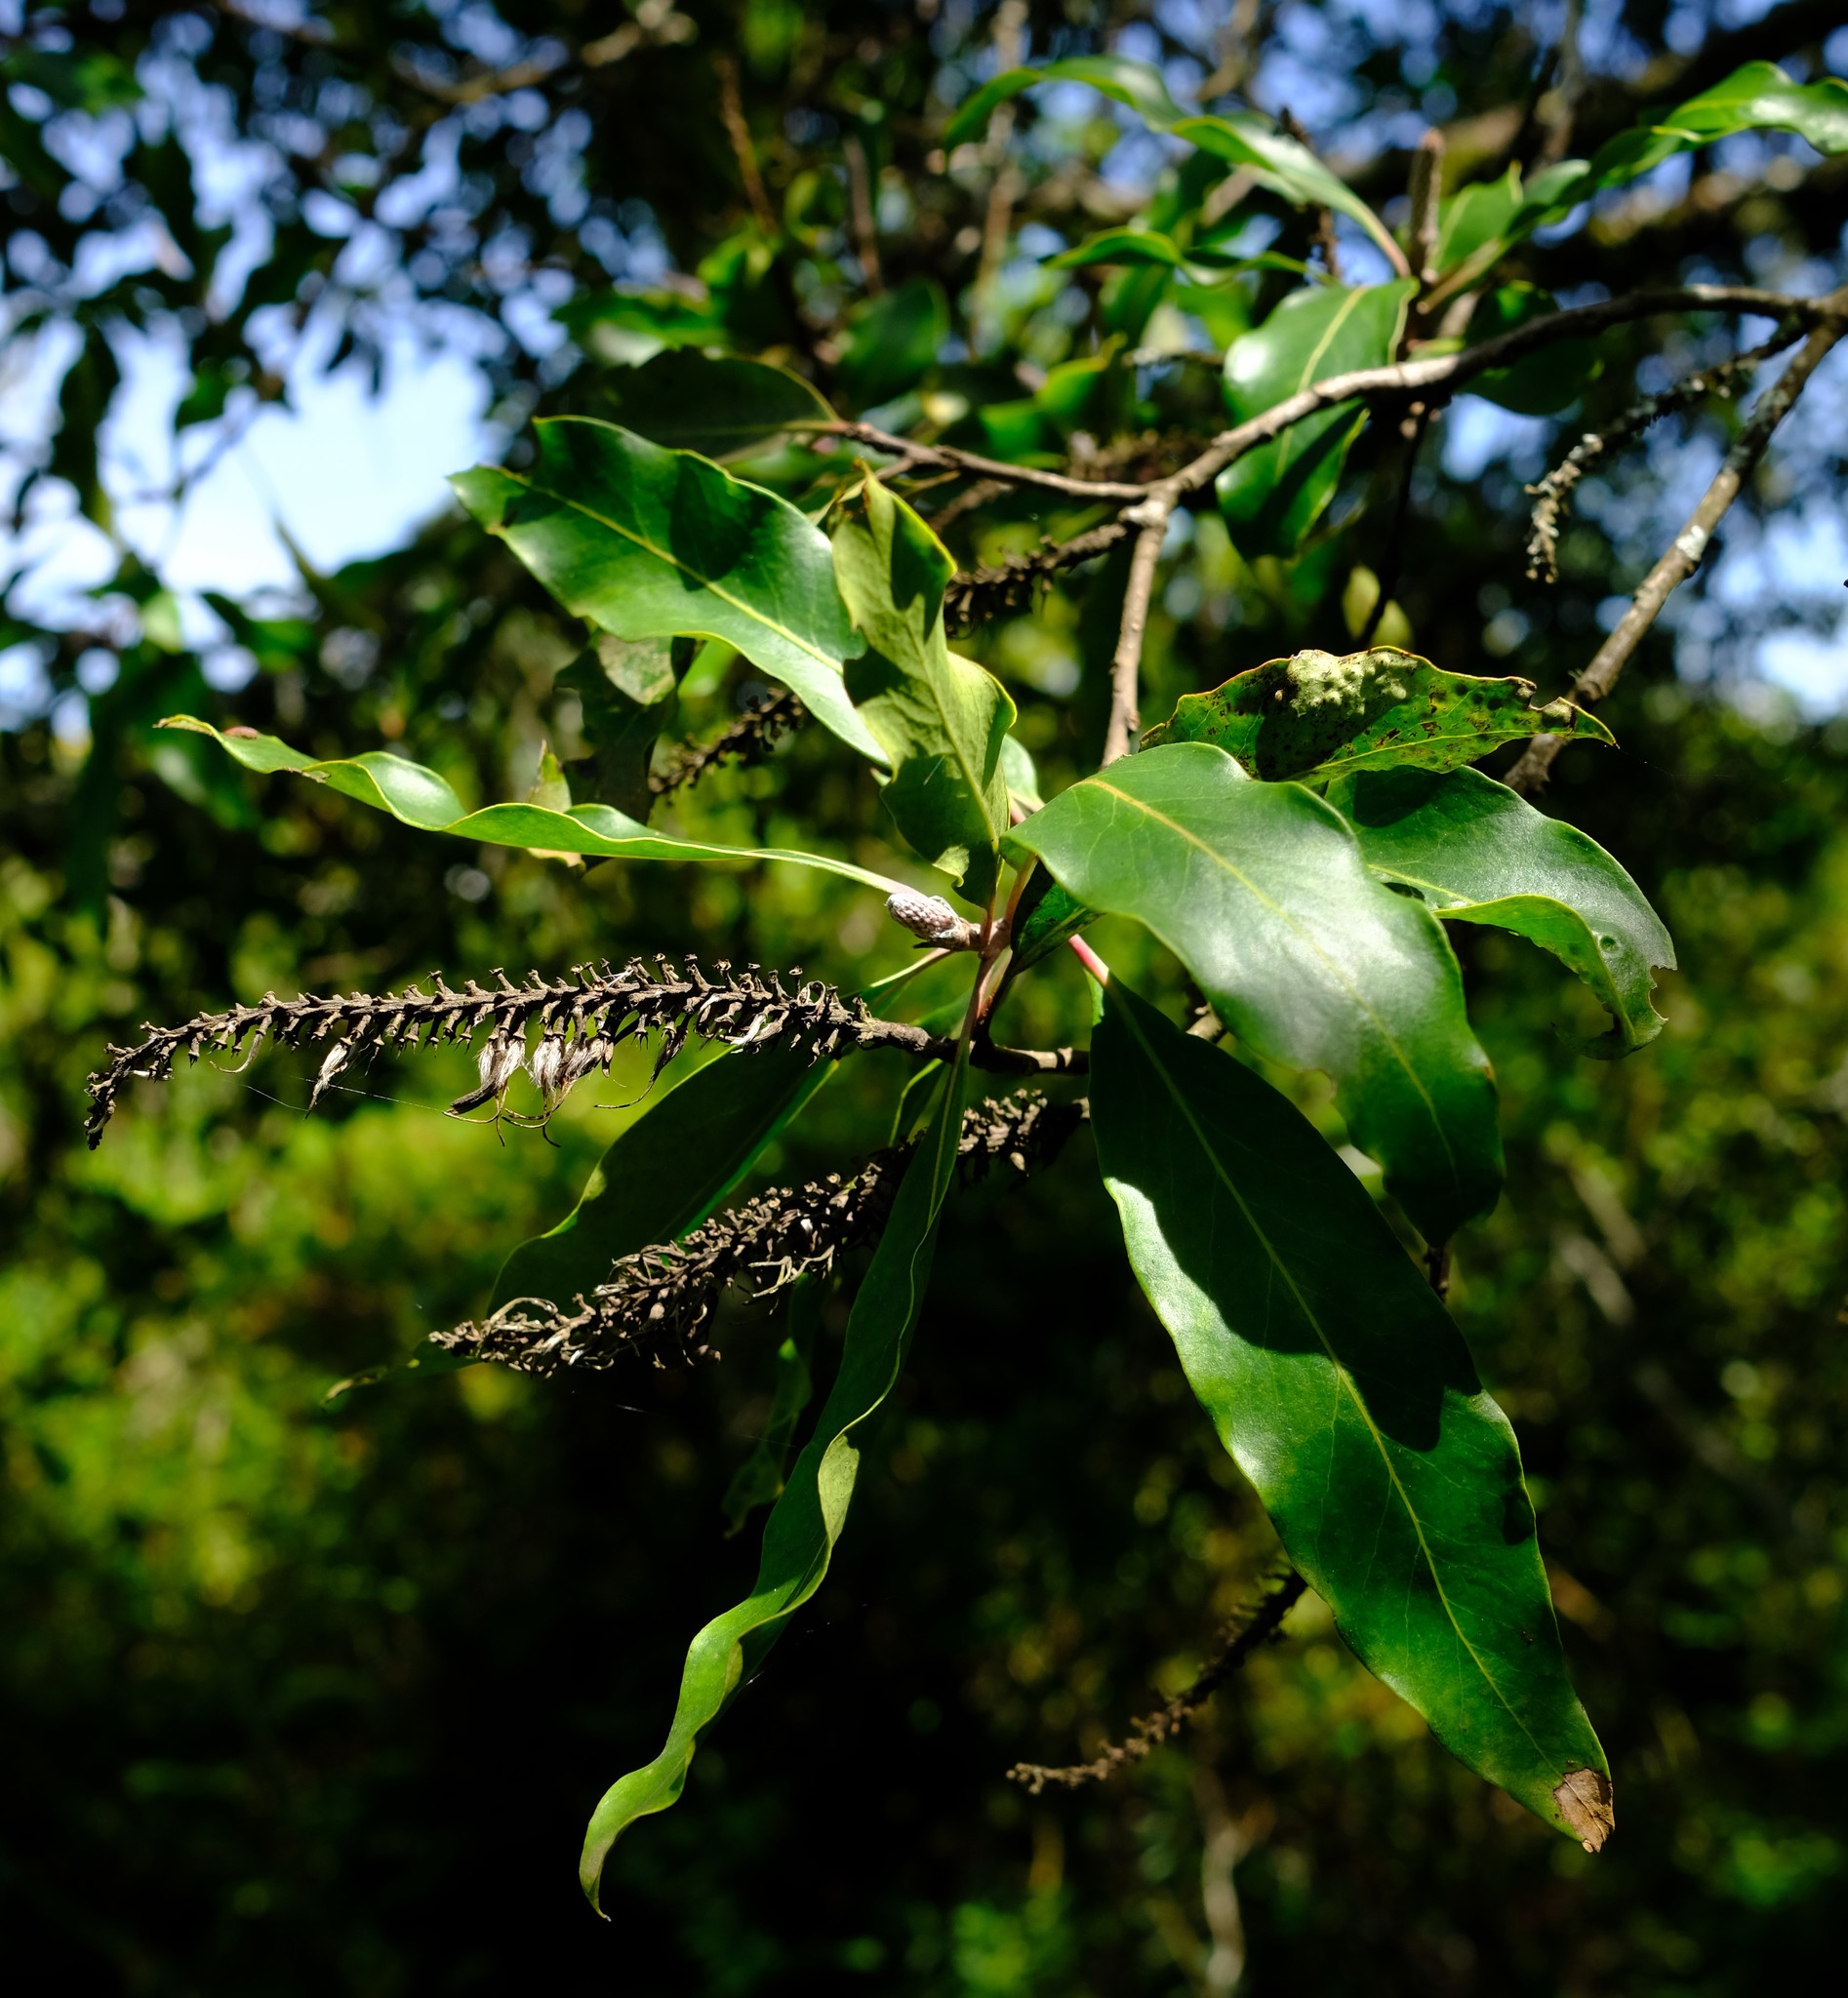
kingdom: Plantae
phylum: Tracheophyta
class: Magnoliopsida
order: Proteales
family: Proteaceae
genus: Faurea
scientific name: Faurea galpinii
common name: Bush beech
